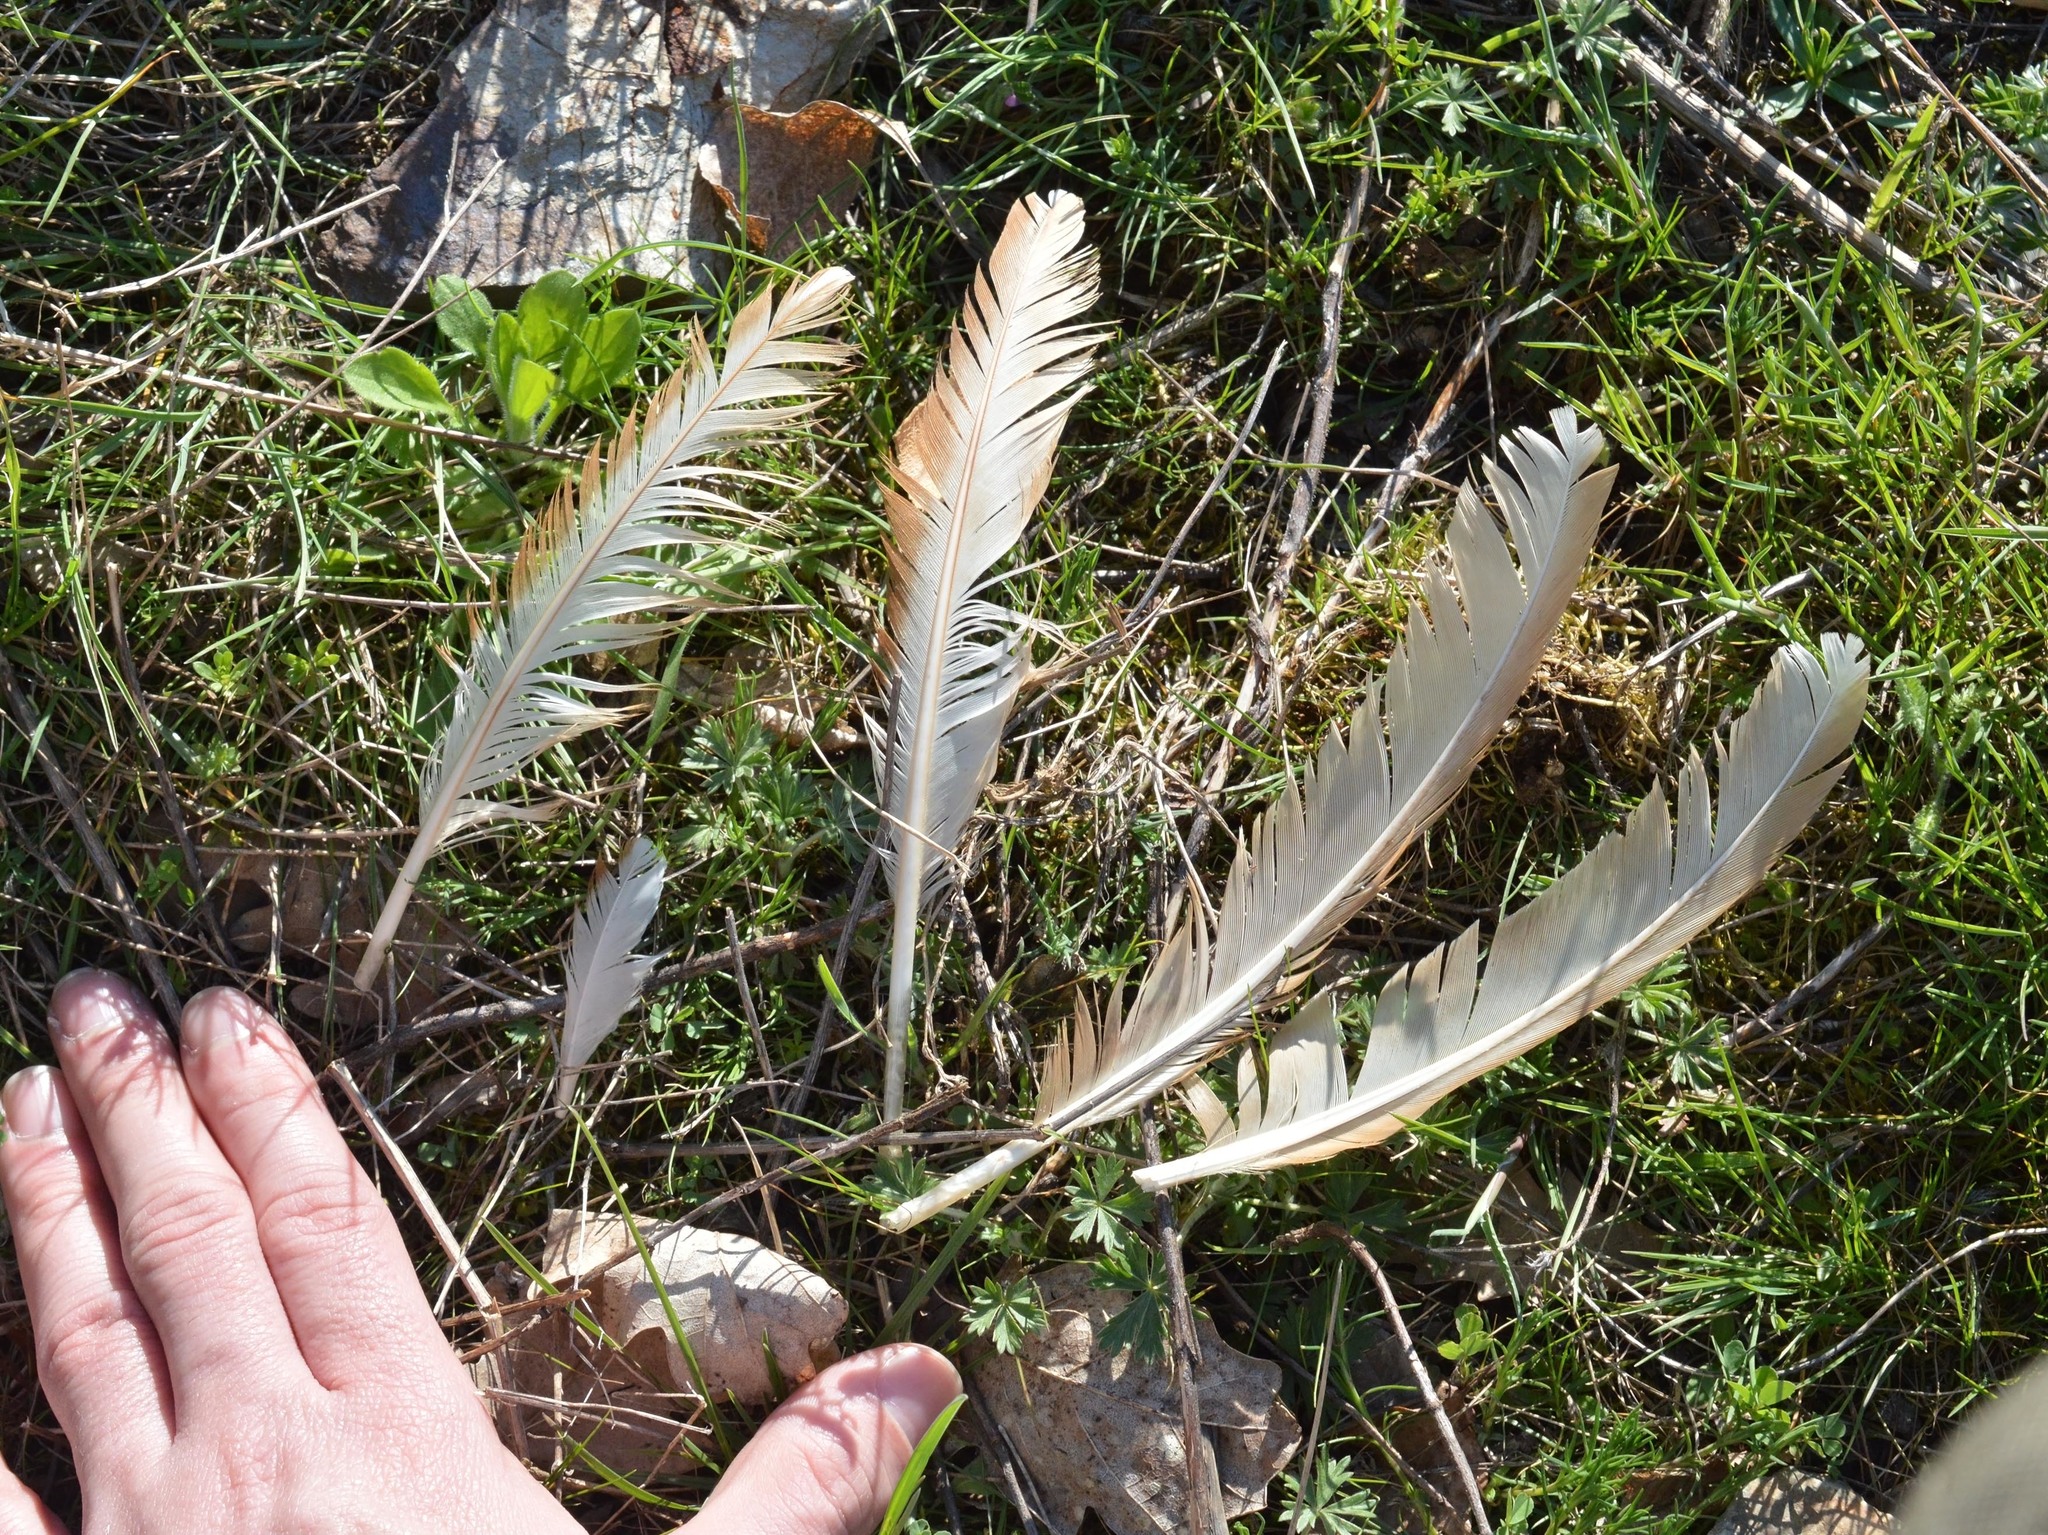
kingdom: Animalia
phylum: Chordata
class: Aves
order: Galliformes
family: Phasianidae
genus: Gallus
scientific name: Gallus gallus
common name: Red junglefowl
